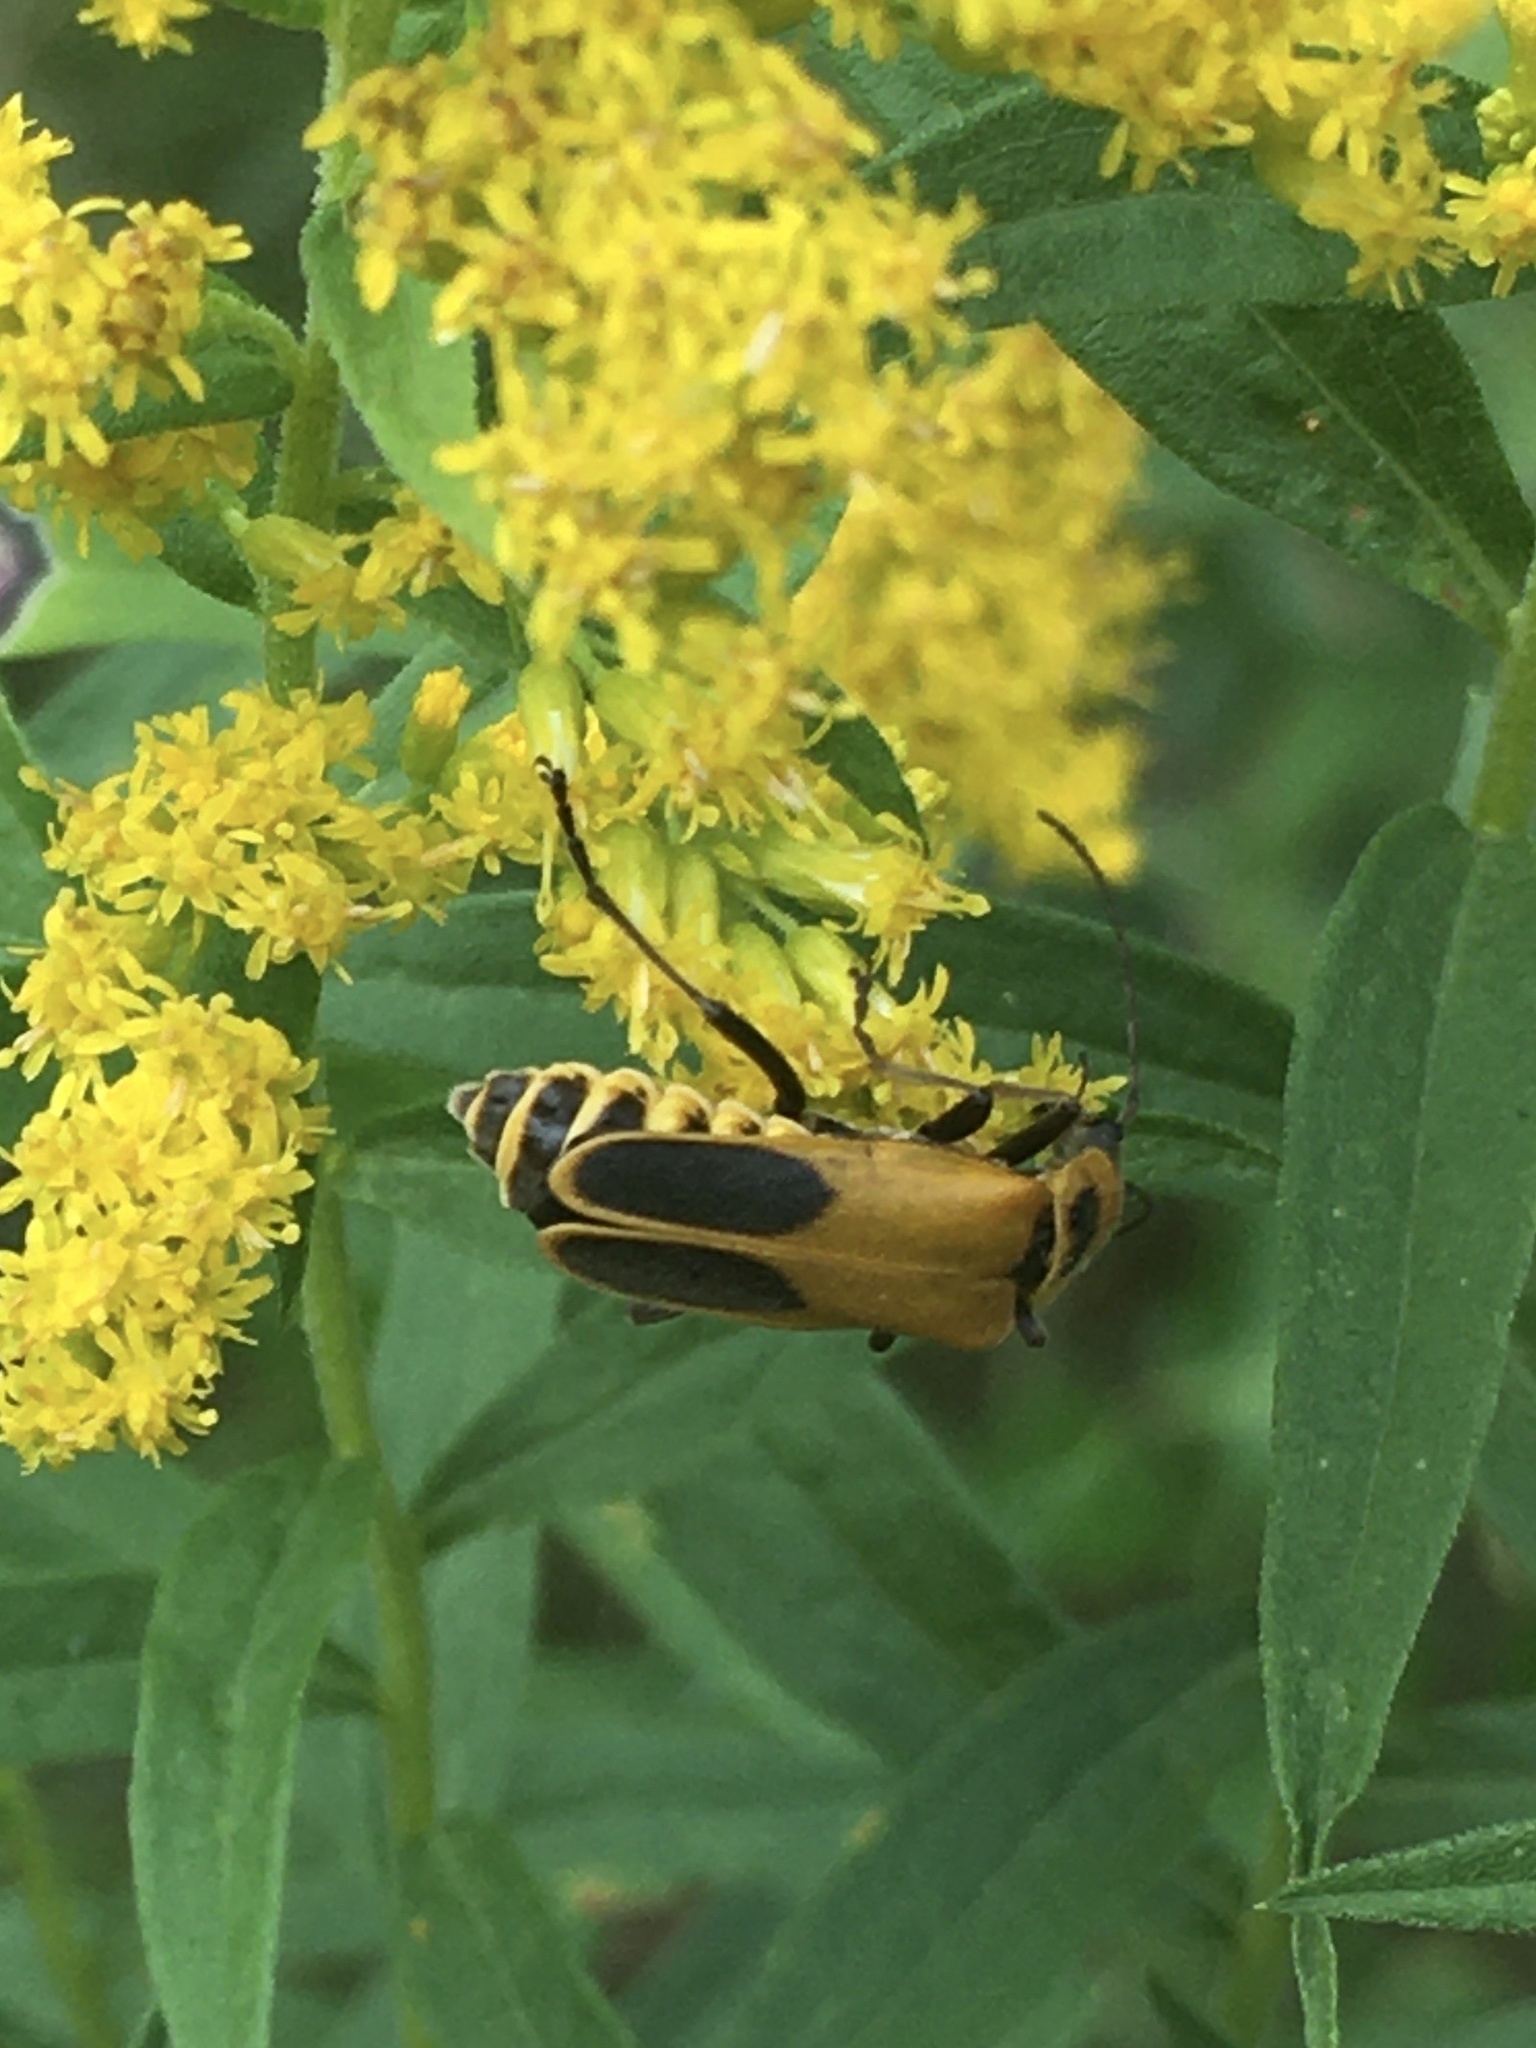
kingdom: Animalia
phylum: Arthropoda
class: Insecta
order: Coleoptera
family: Cantharidae
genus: Chauliognathus
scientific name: Chauliognathus pensylvanicus
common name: Goldenrod soldier beetle
